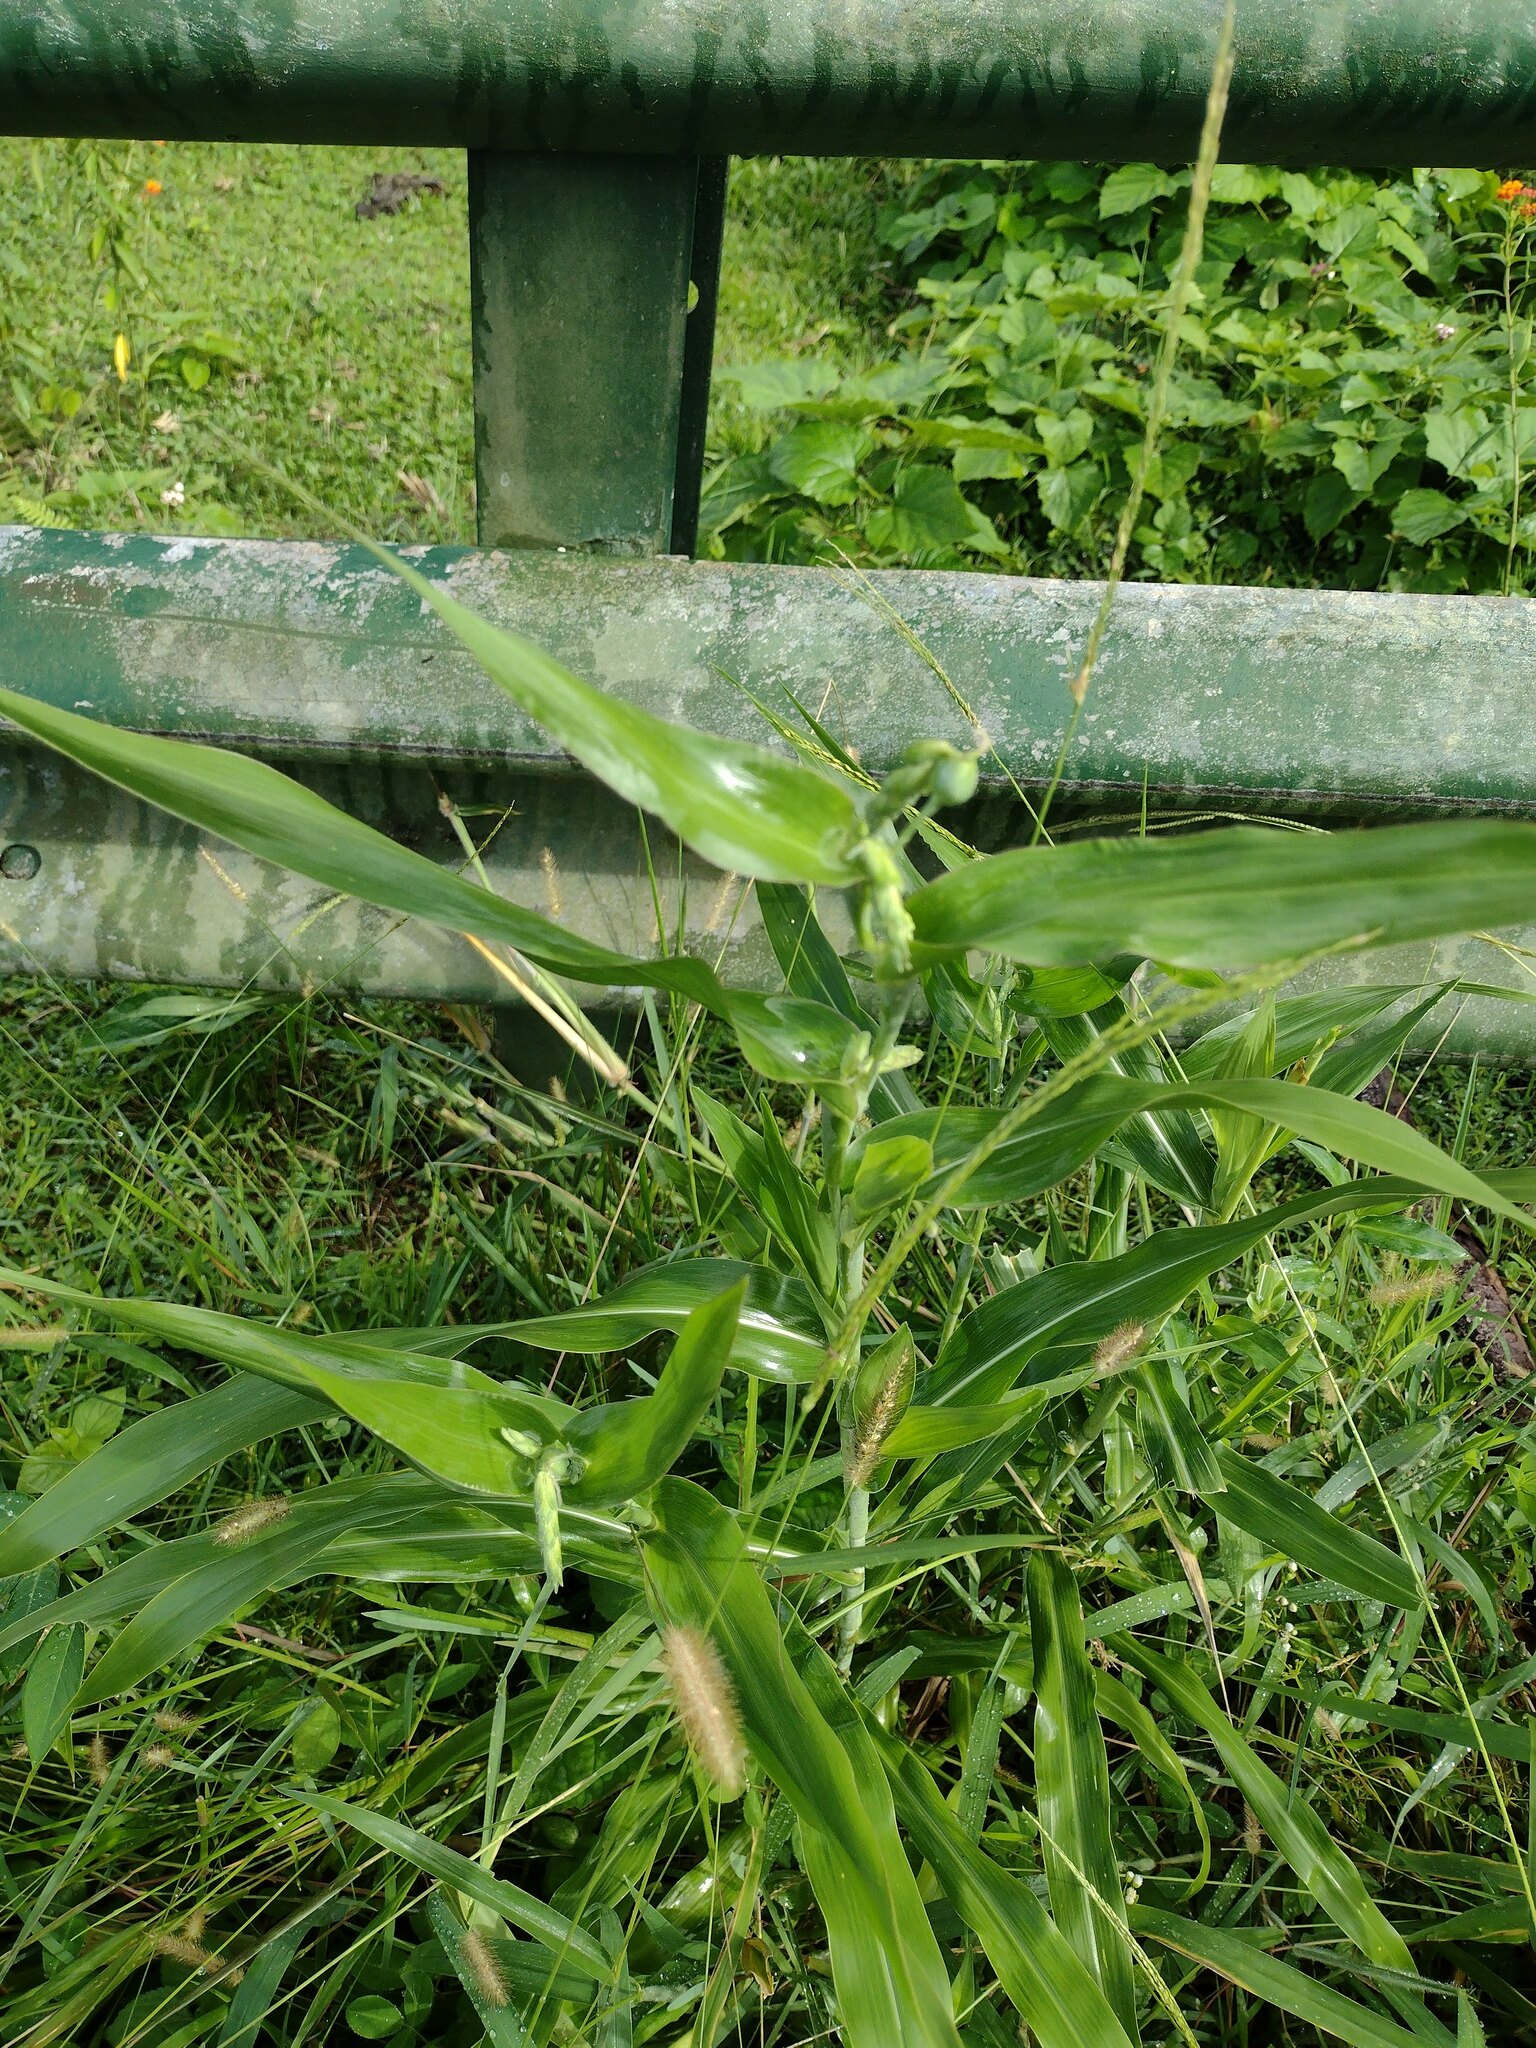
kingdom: Plantae
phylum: Tracheophyta
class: Liliopsida
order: Poales
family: Poaceae
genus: Coix
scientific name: Coix lacryma-jobi
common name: Job's tears
